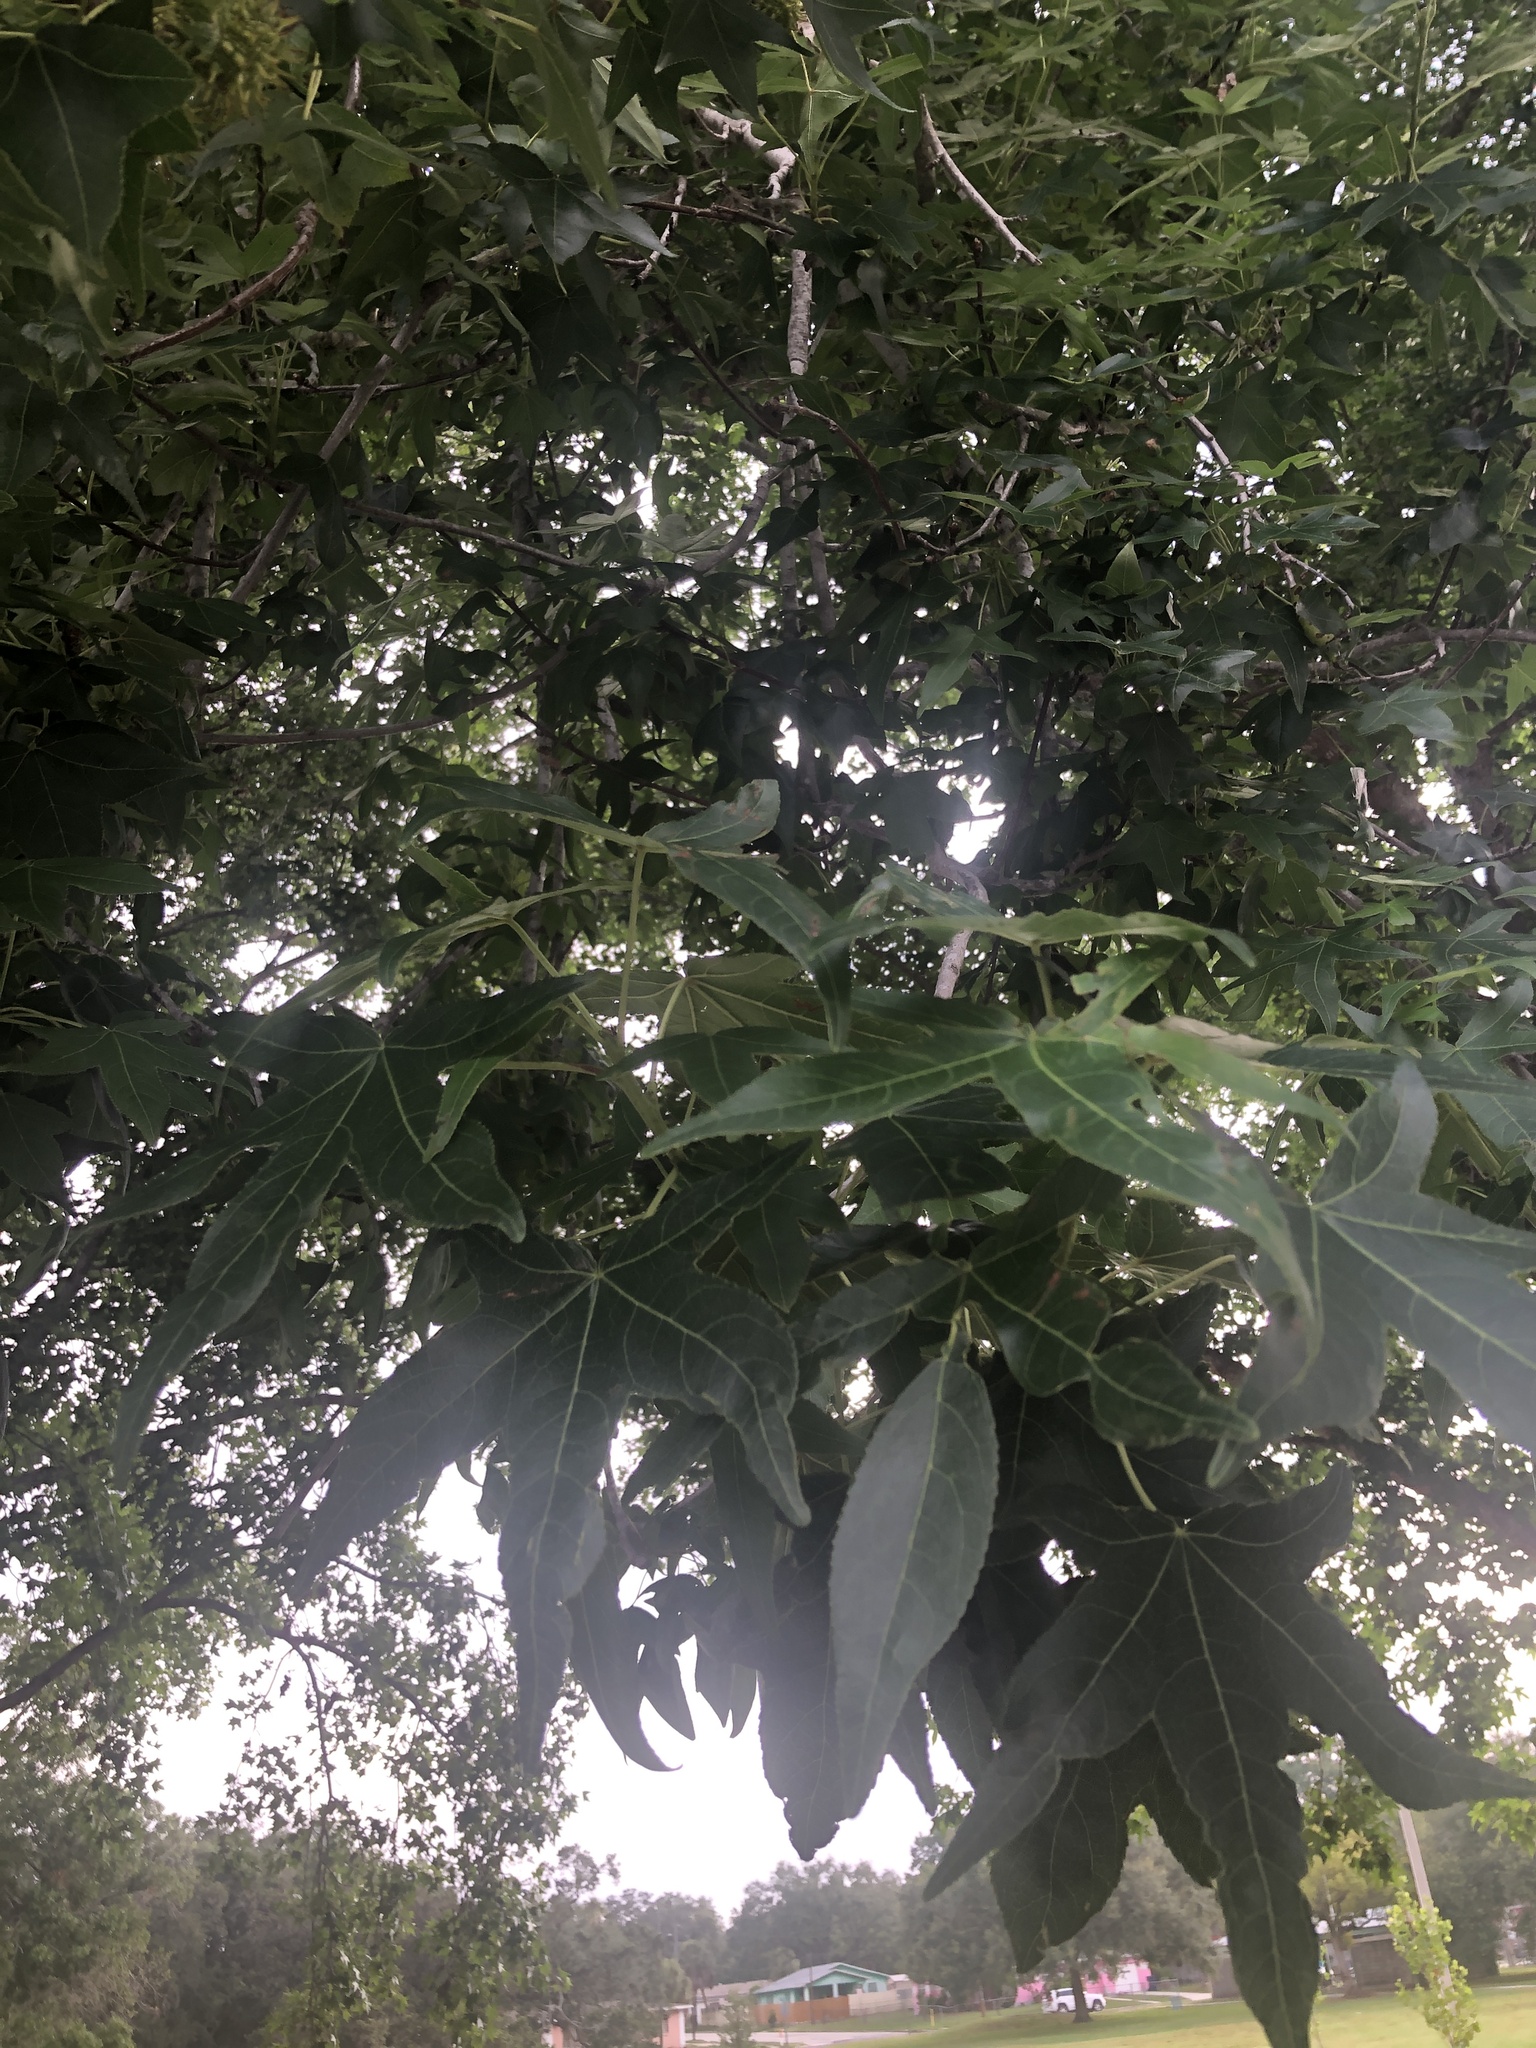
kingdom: Plantae
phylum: Tracheophyta
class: Magnoliopsida
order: Saxifragales
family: Altingiaceae
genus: Liquidambar
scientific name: Liquidambar styraciflua
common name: Sweet gum
